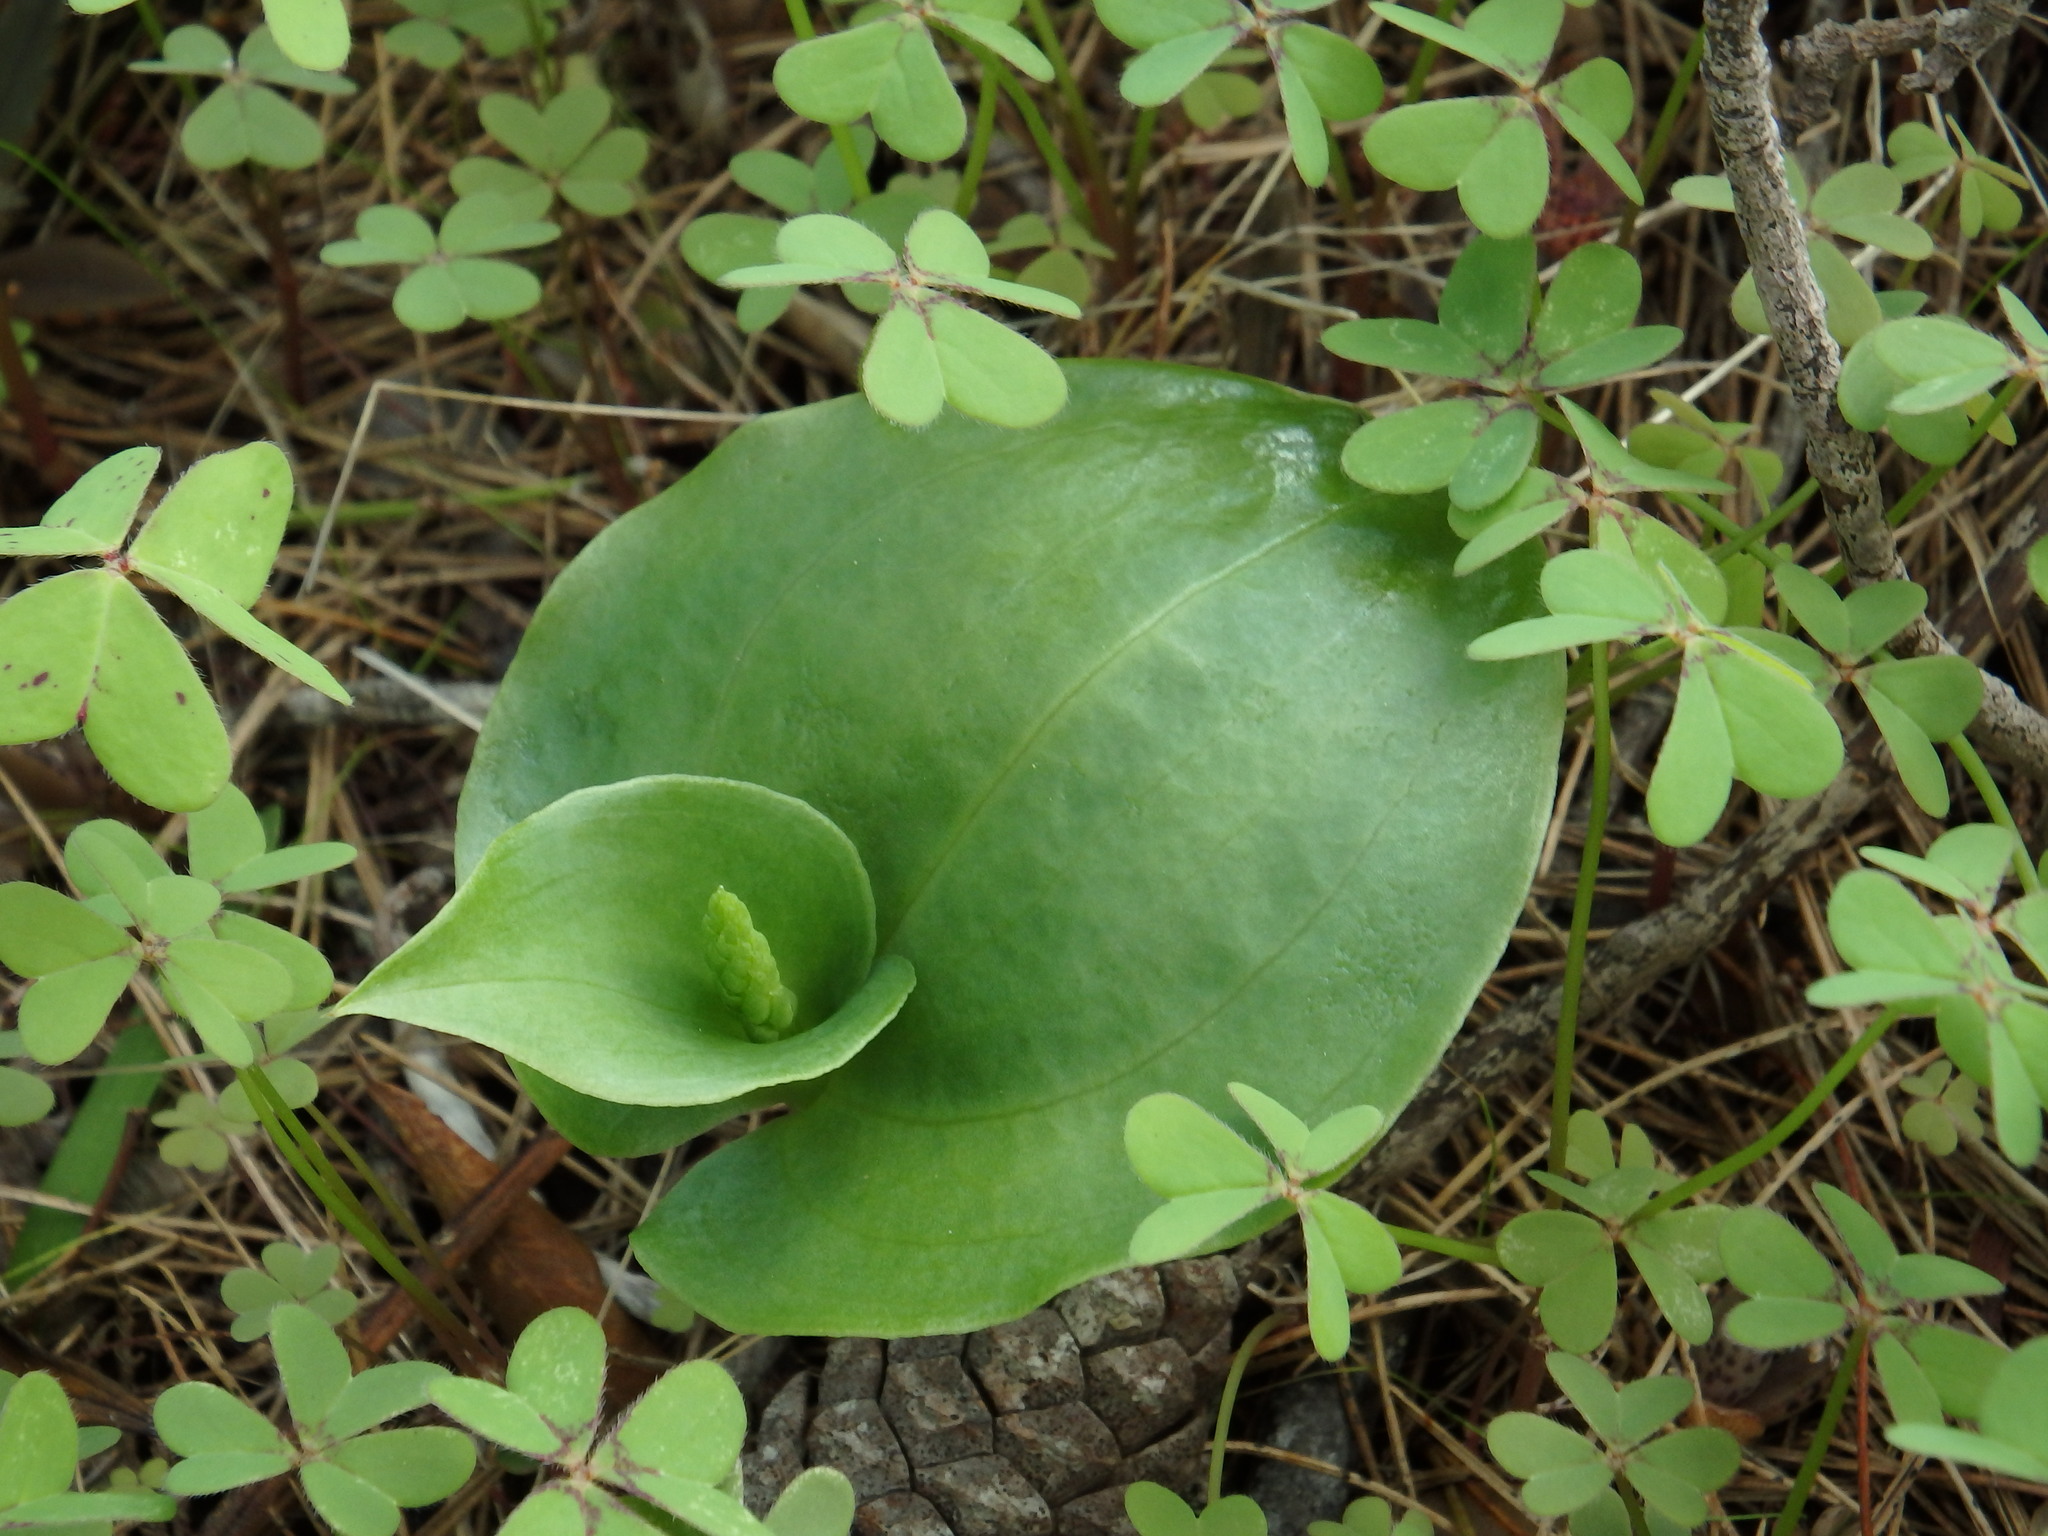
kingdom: Plantae
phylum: Tracheophyta
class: Liliopsida
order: Asparagales
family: Orchidaceae
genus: Gennaria
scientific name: Gennaria diphylla
